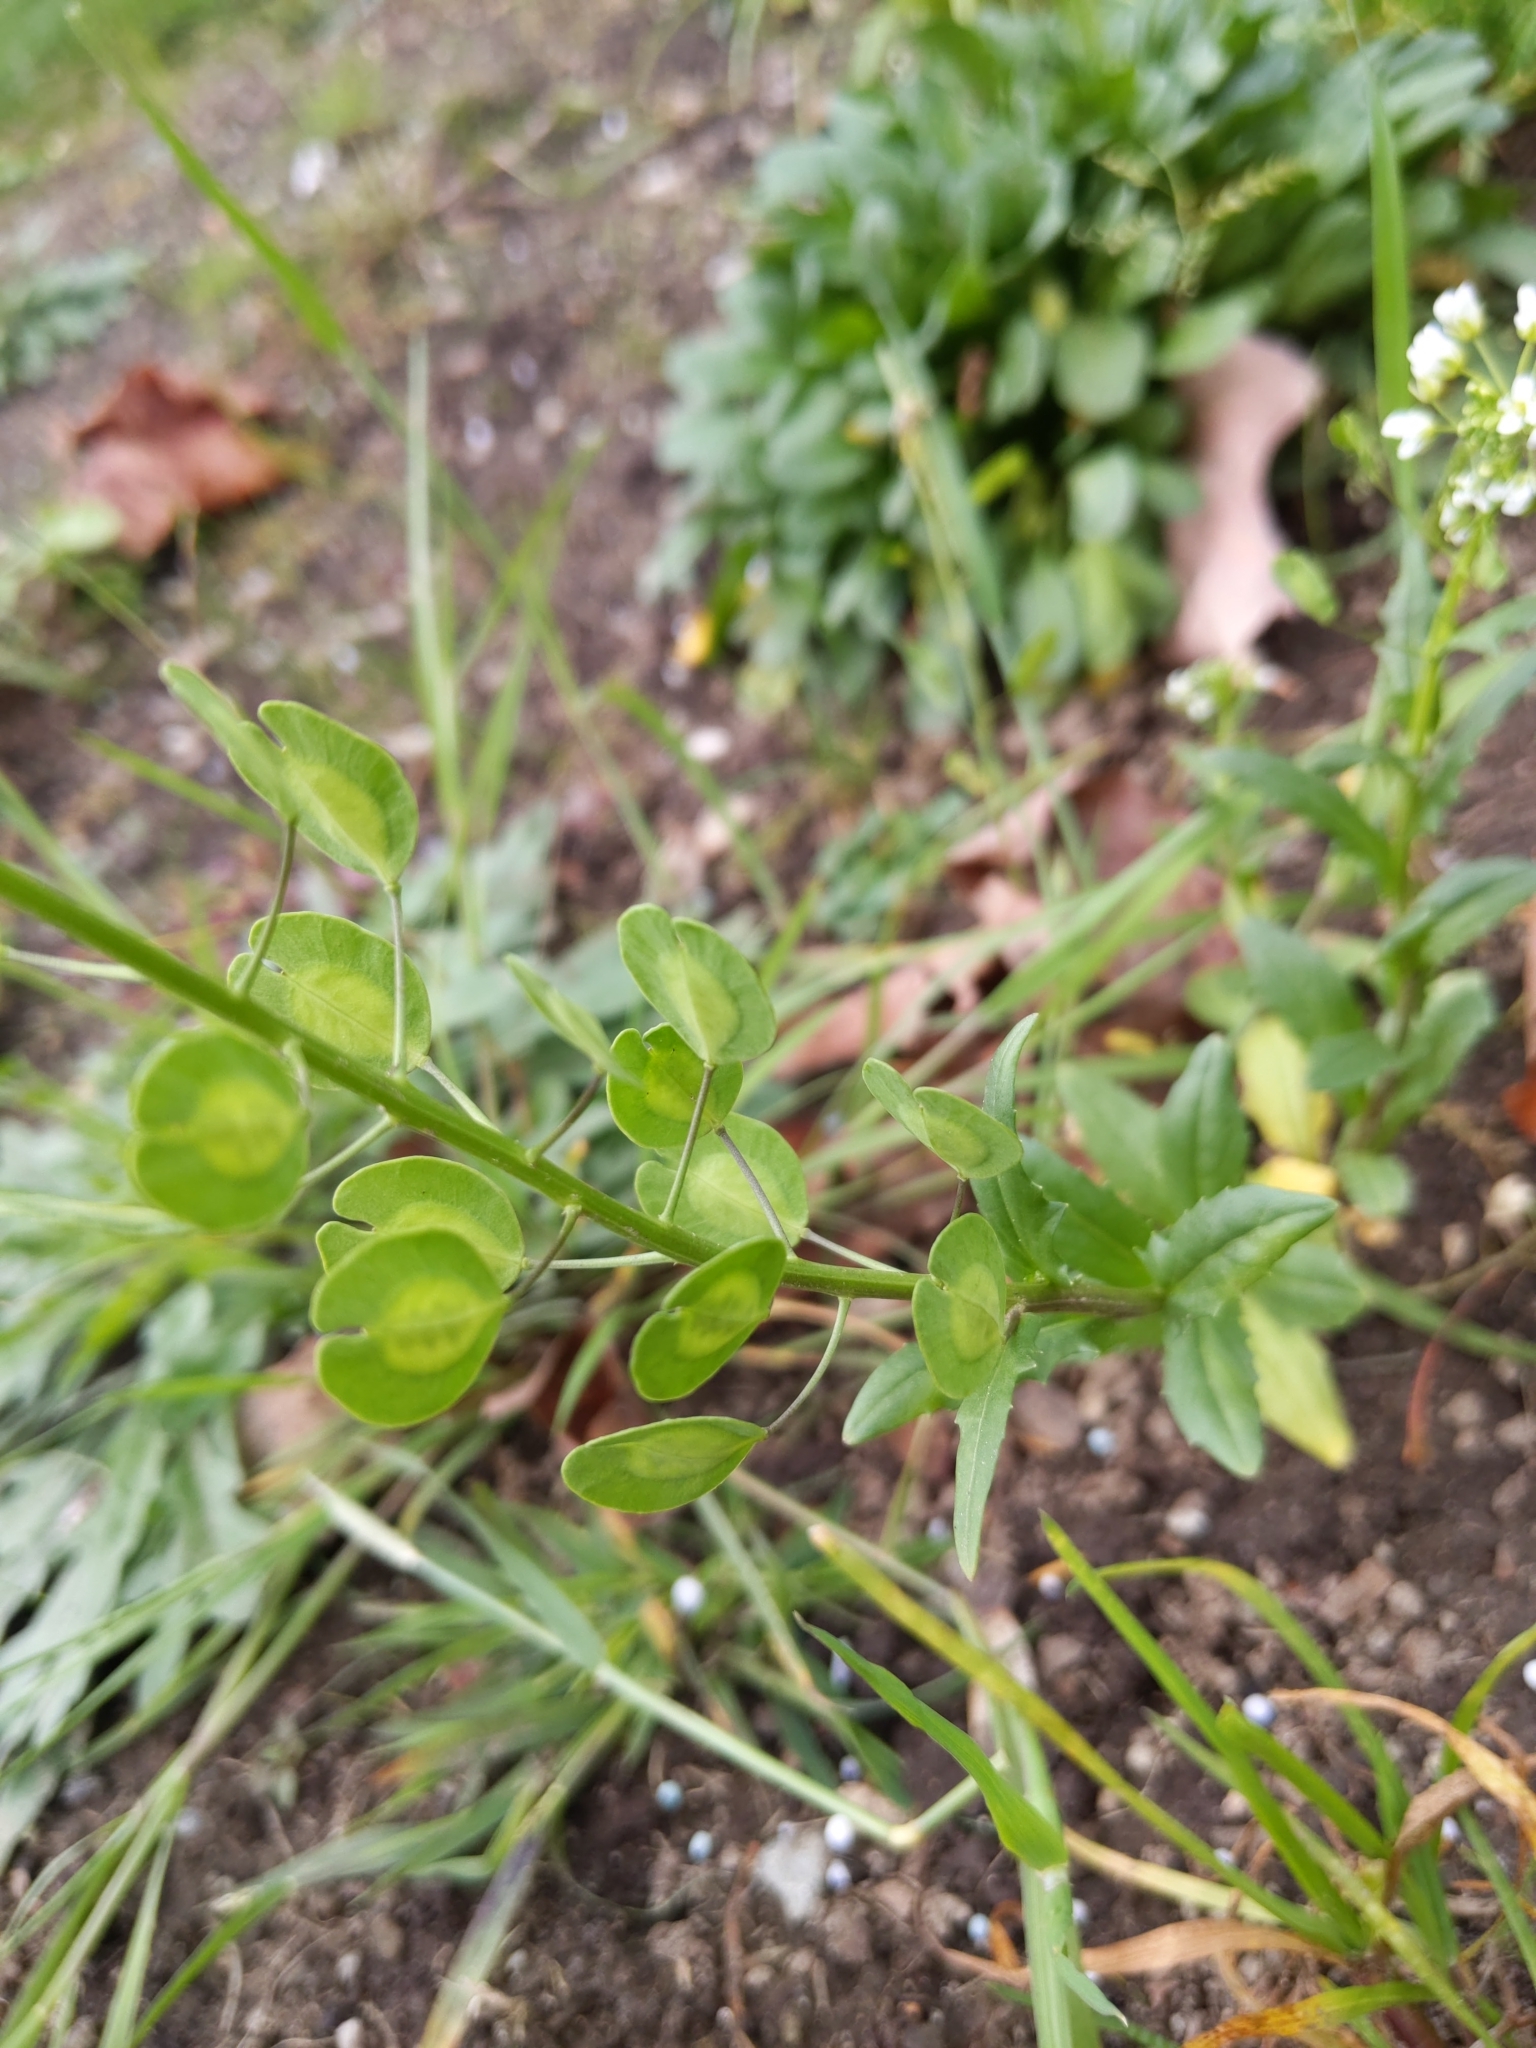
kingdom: Plantae
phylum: Tracheophyta
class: Magnoliopsida
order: Brassicales
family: Brassicaceae
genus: Thlaspi
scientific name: Thlaspi arvense
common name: Field pennycress
